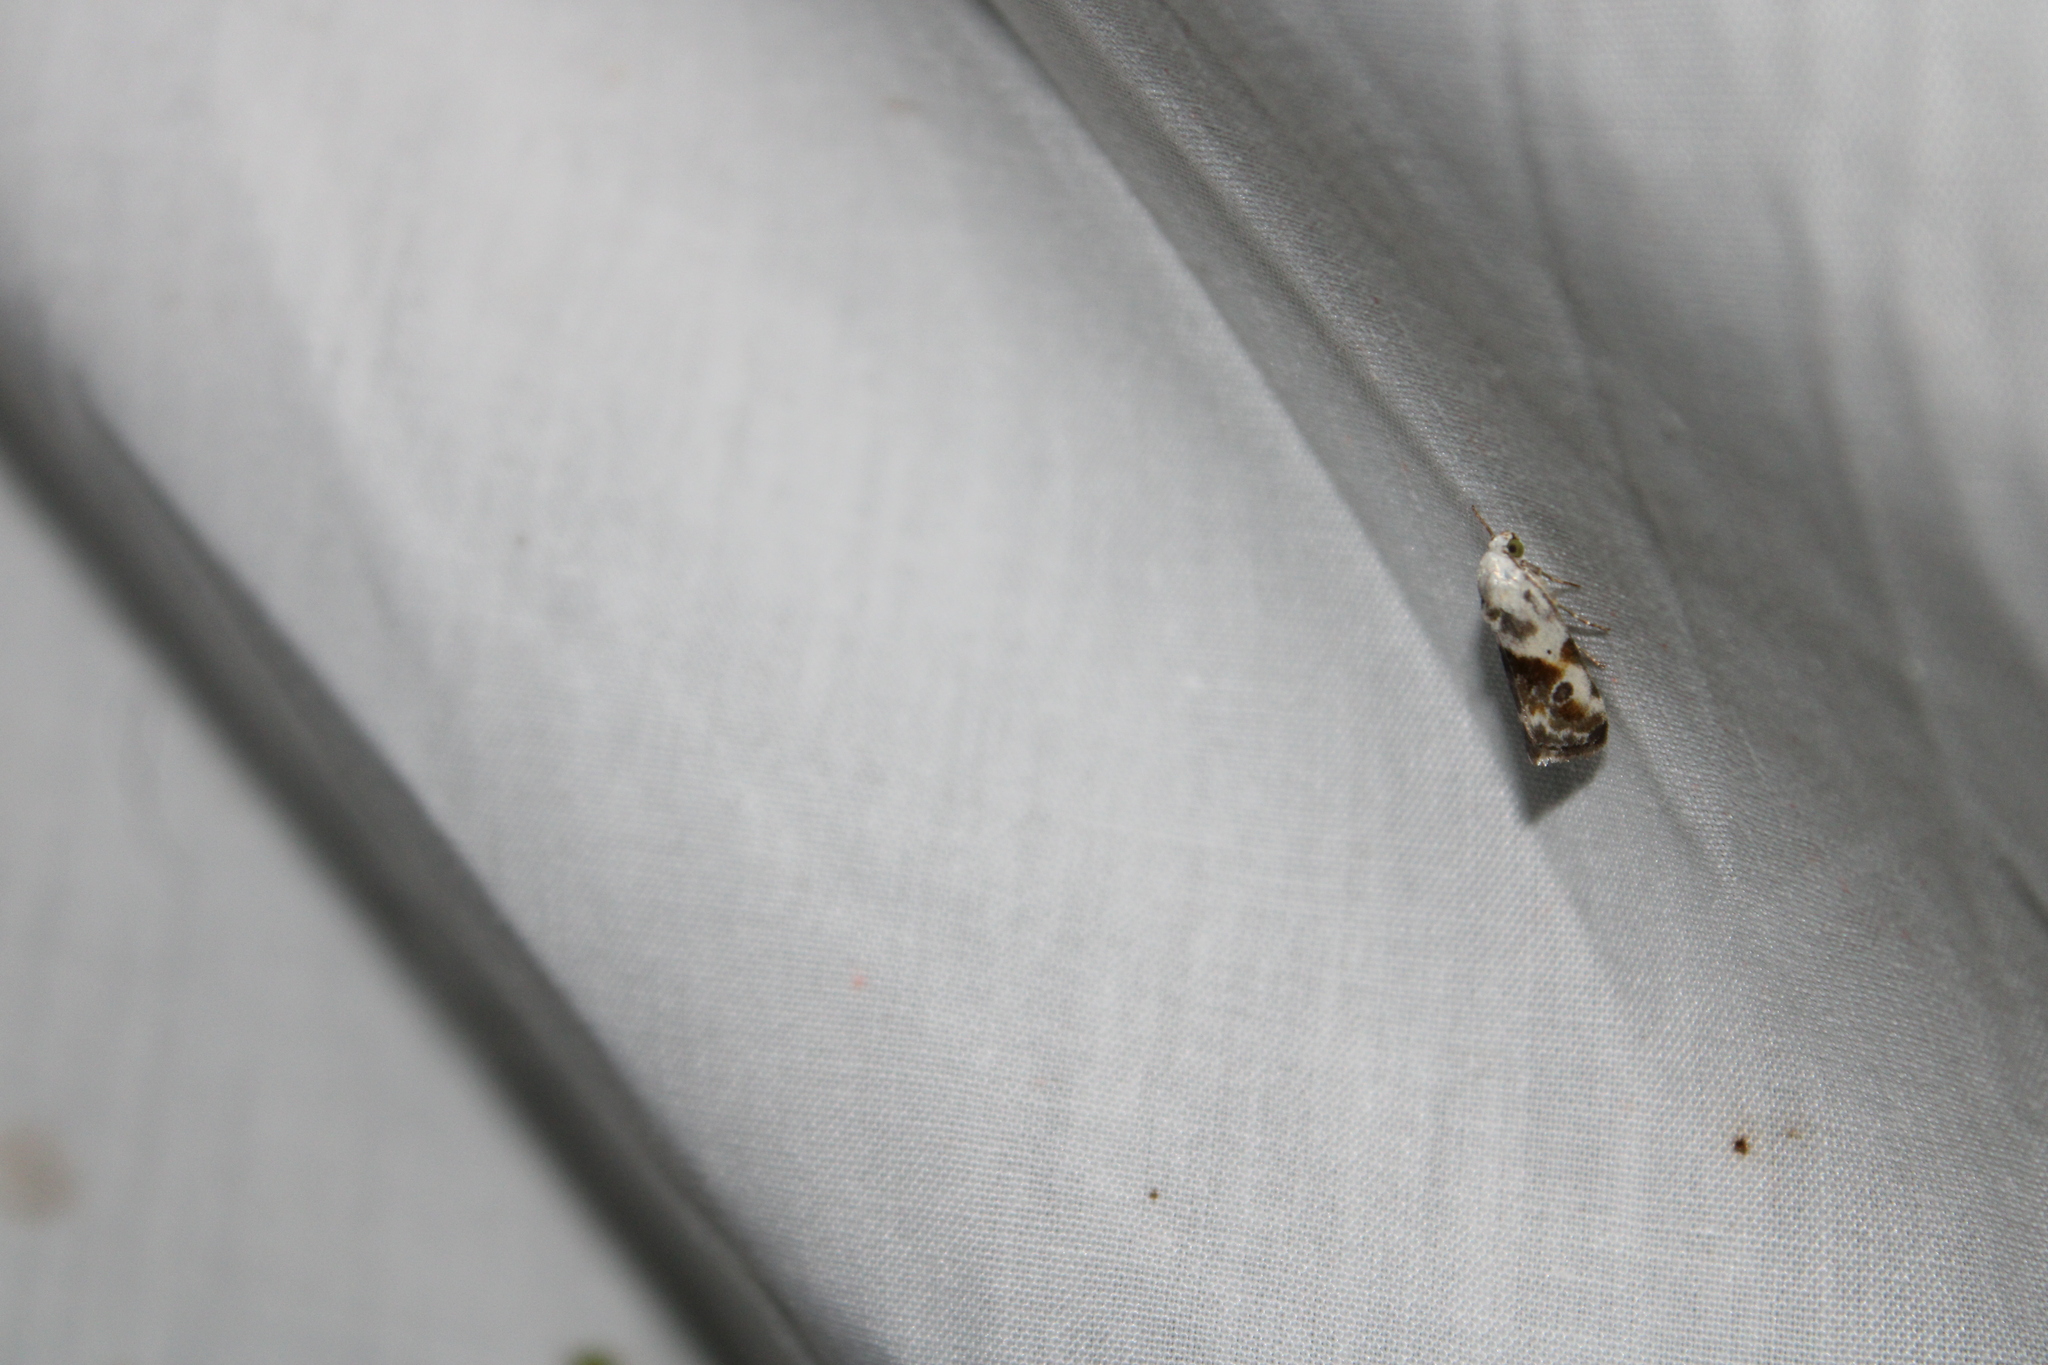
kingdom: Animalia
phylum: Arthropoda
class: Insecta
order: Lepidoptera
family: Noctuidae
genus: Acontia
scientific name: Acontia candefacta
